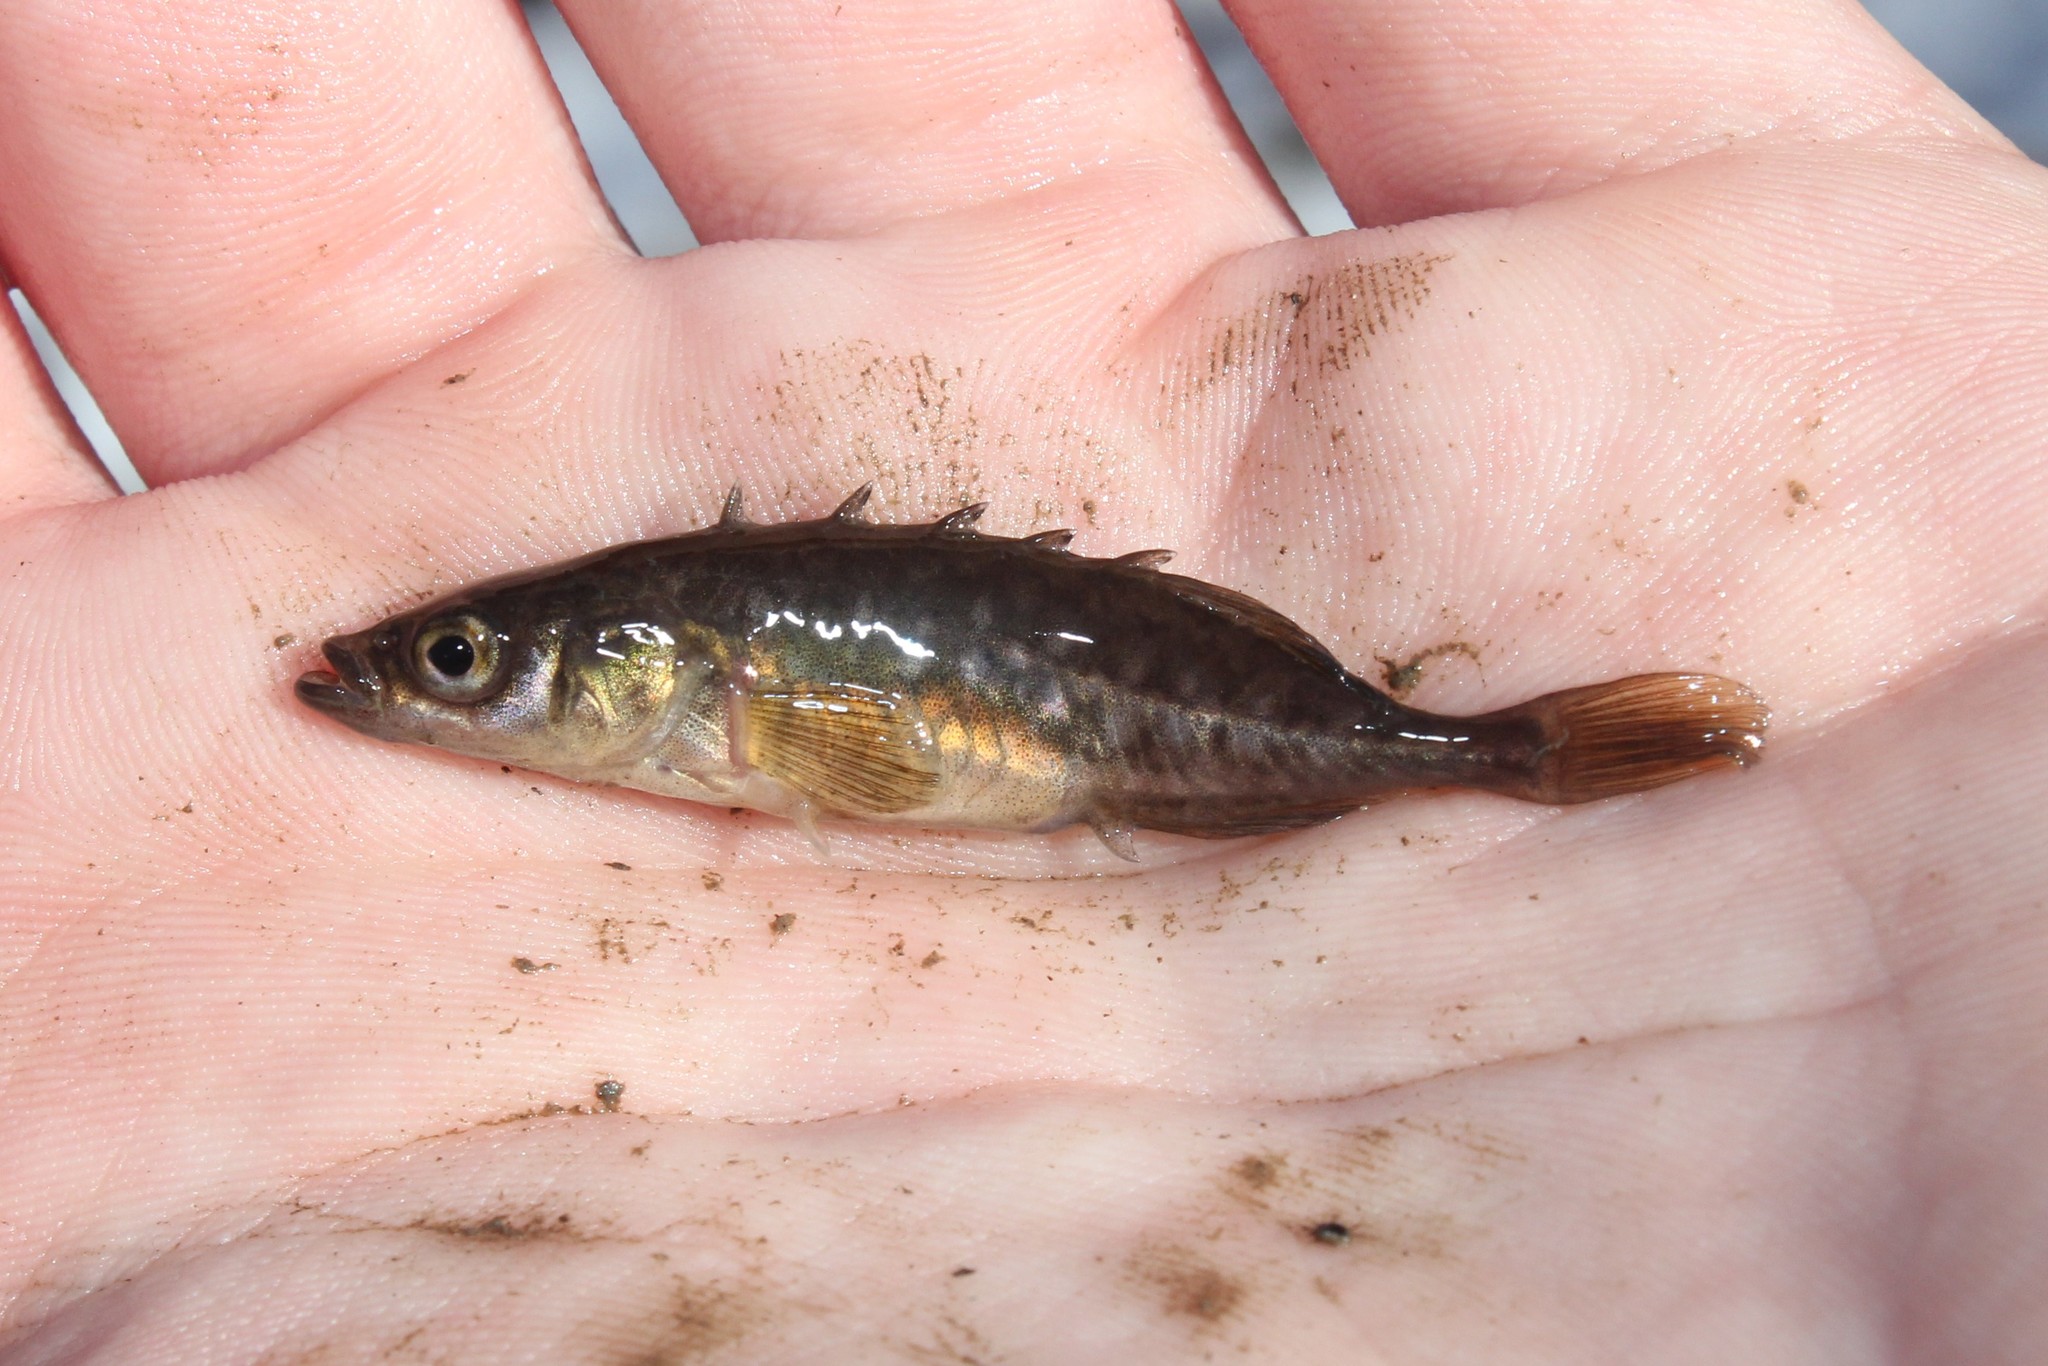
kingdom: Animalia
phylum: Chordata
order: Gasterosteiformes
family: Gasterosteidae
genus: Culaea
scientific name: Culaea inconstans
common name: Brook stickleback
